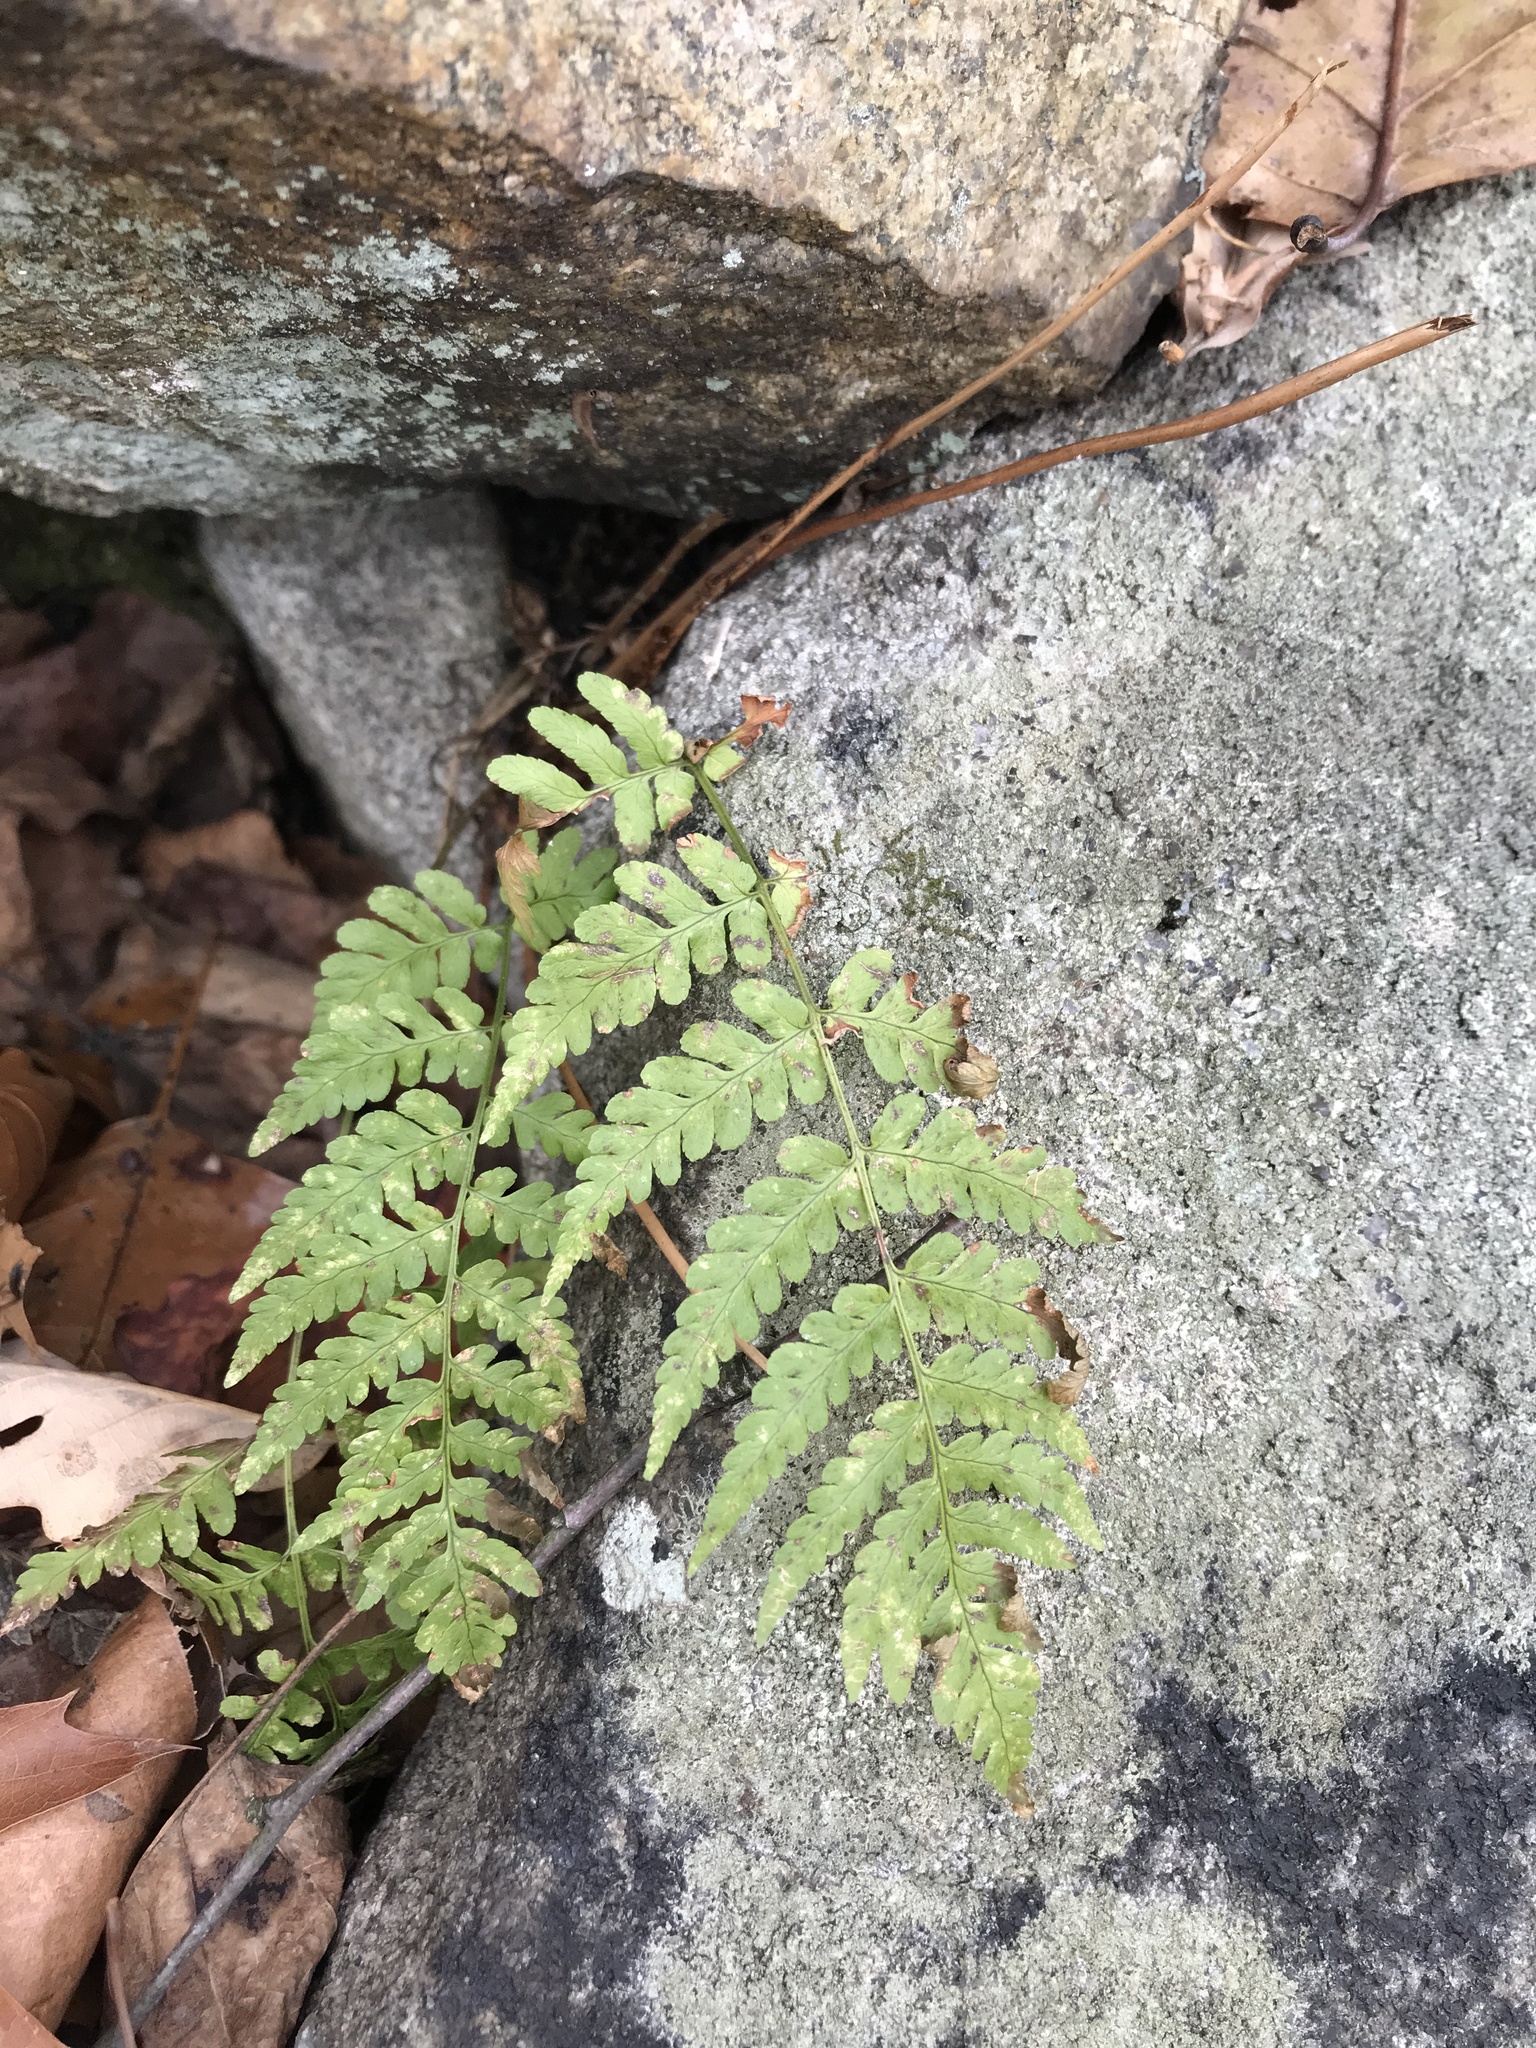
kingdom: Plantae
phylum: Tracheophyta
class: Polypodiopsida
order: Polypodiales
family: Dryopteridaceae
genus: Dryopteris
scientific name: Dryopteris marginalis
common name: Marginal wood fern
